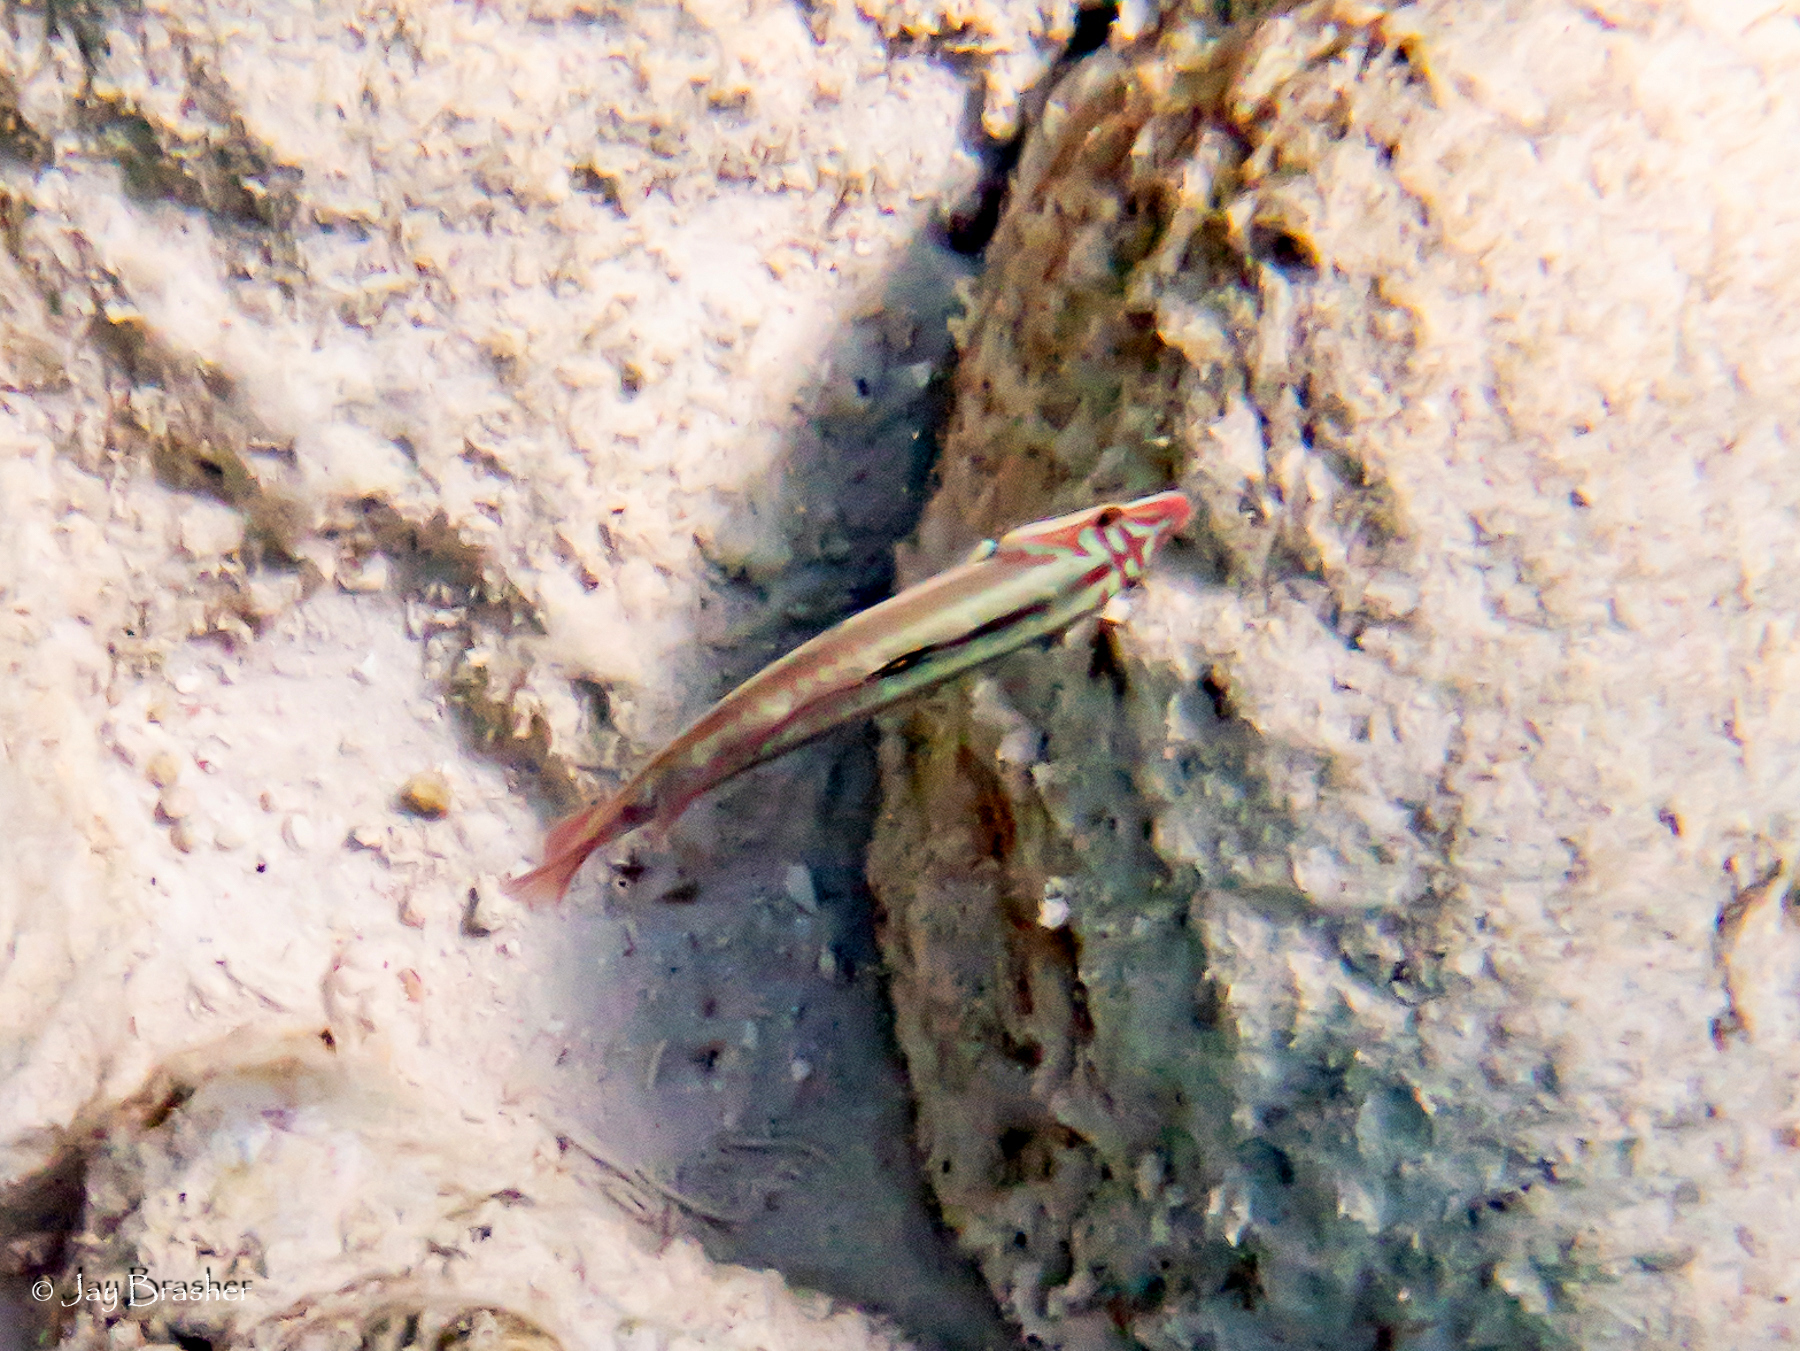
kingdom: Animalia
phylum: Chordata
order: Perciformes
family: Labridae
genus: Halichoeres
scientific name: Halichoeres maculipinna
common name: Clown wrasse
